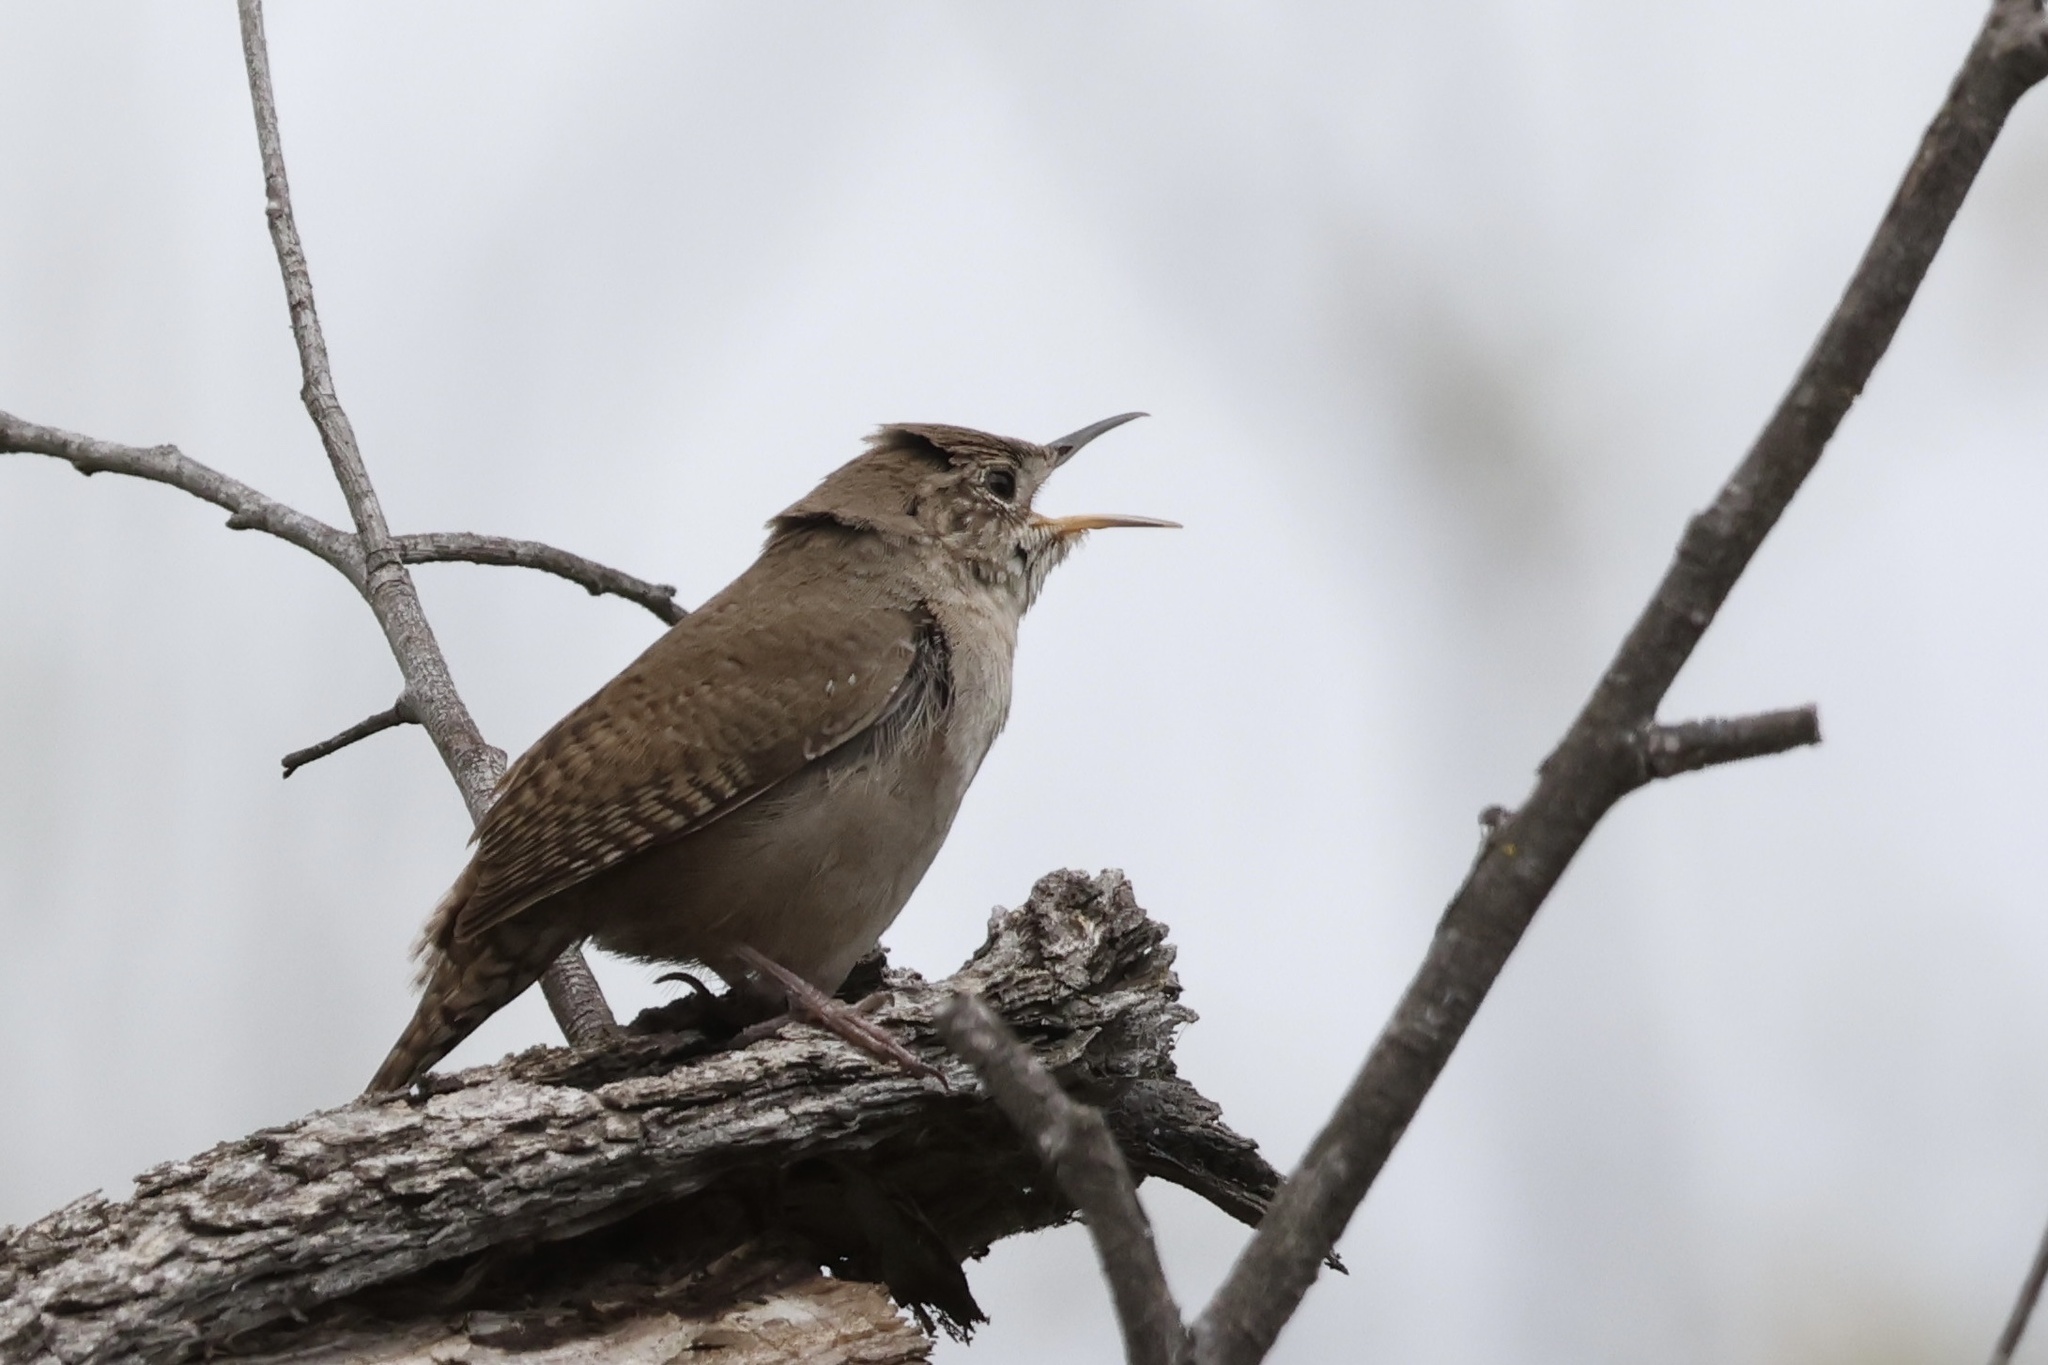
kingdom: Animalia
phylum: Chordata
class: Aves
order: Passeriformes
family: Troglodytidae
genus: Troglodytes
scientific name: Troglodytes aedon
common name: House wren
